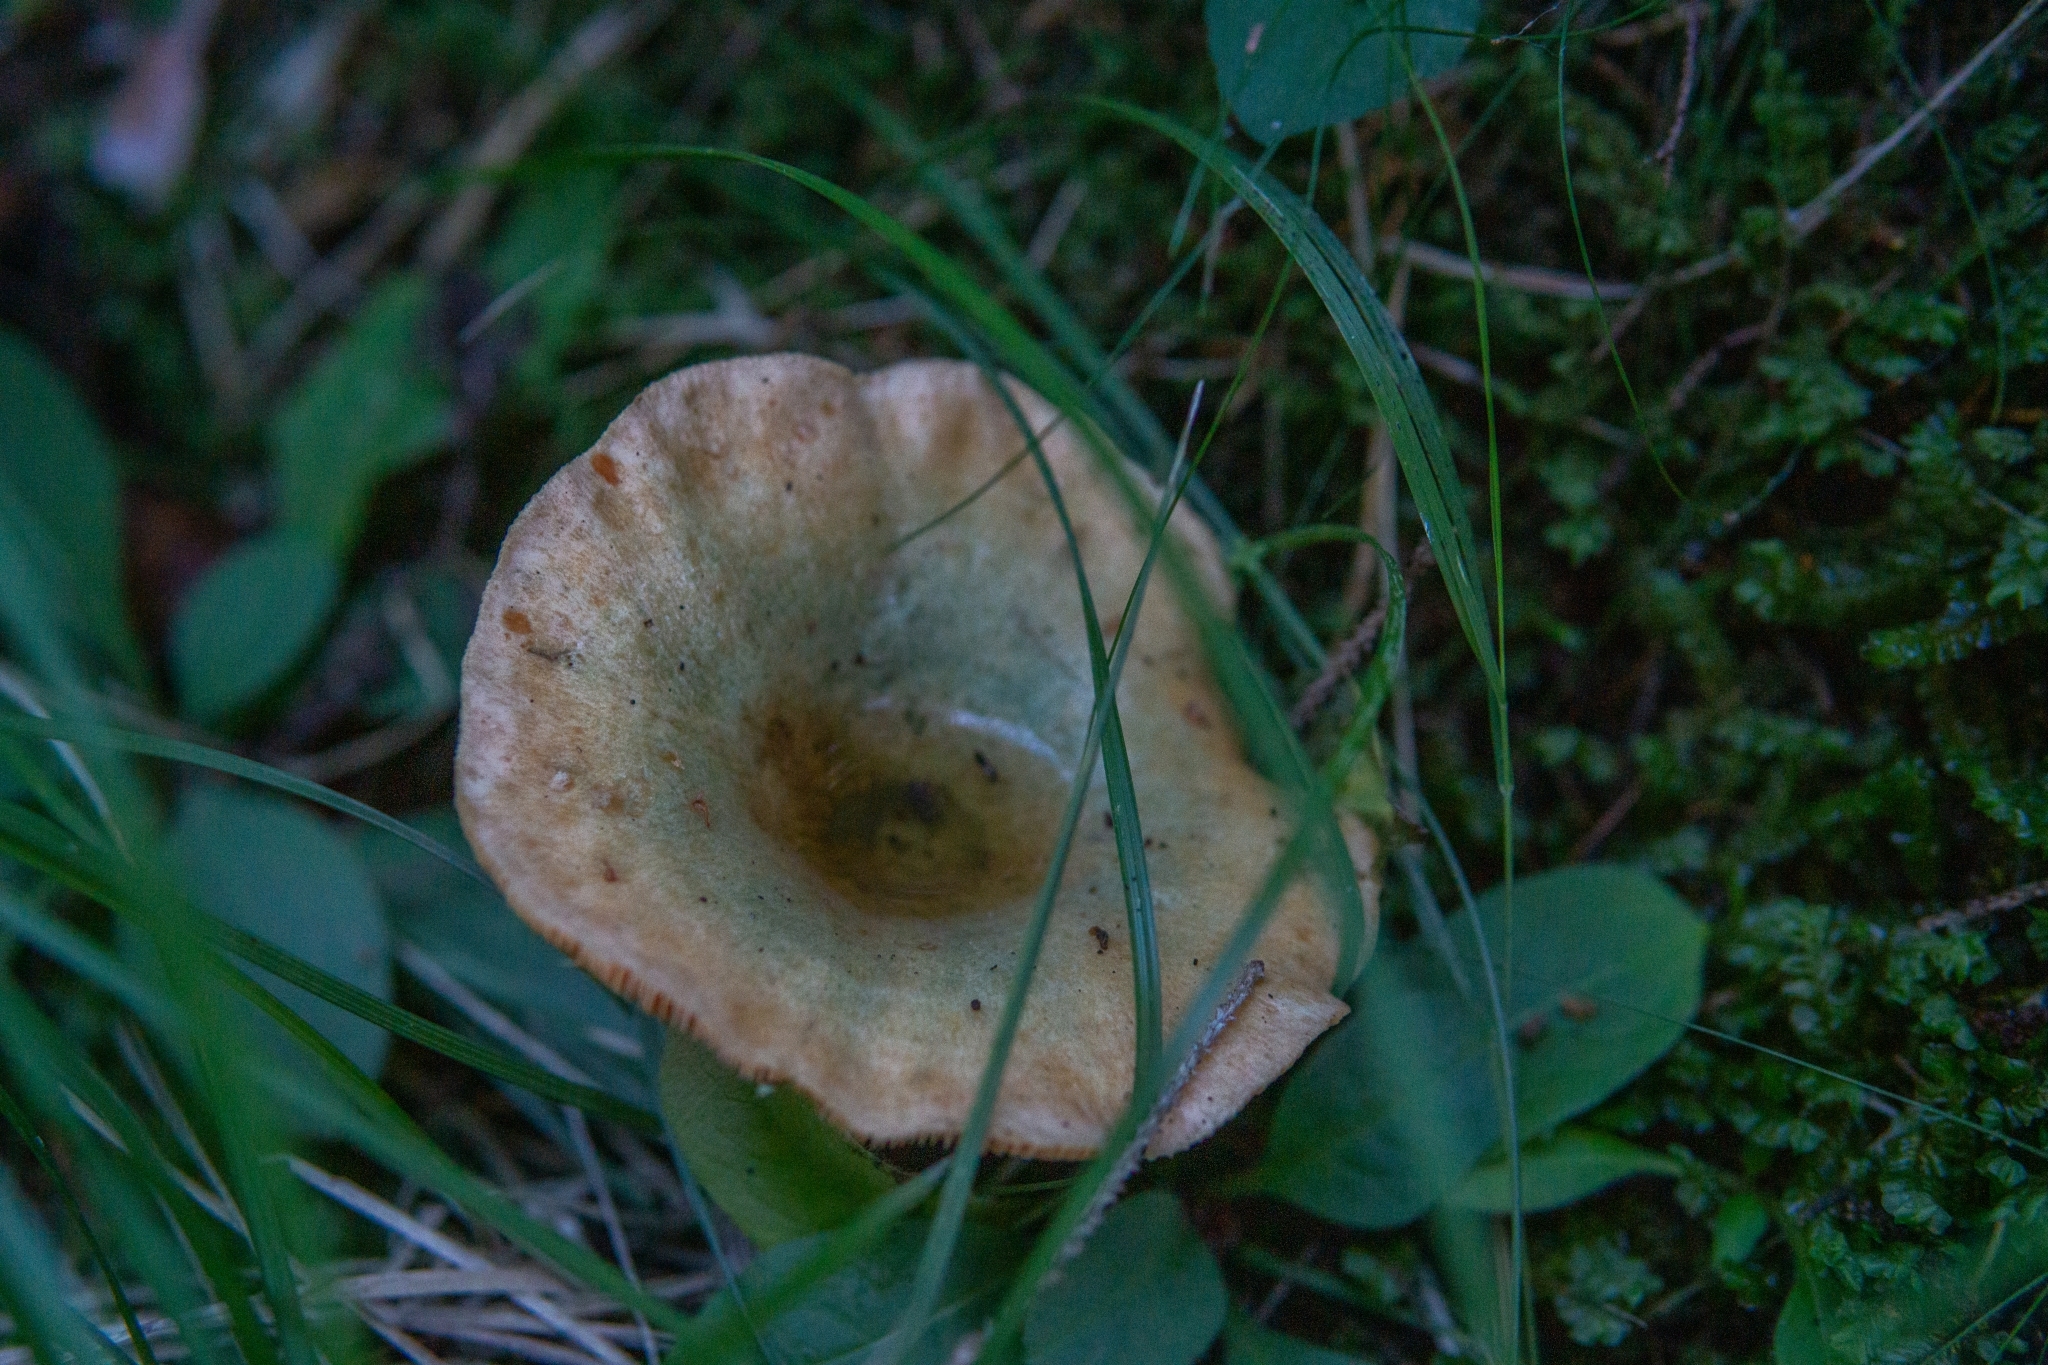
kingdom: Fungi
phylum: Basidiomycota
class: Agaricomycetes
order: Russulales
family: Russulaceae
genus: Lactarius
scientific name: Lactarius deterrimus
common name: False saffron milkcap
